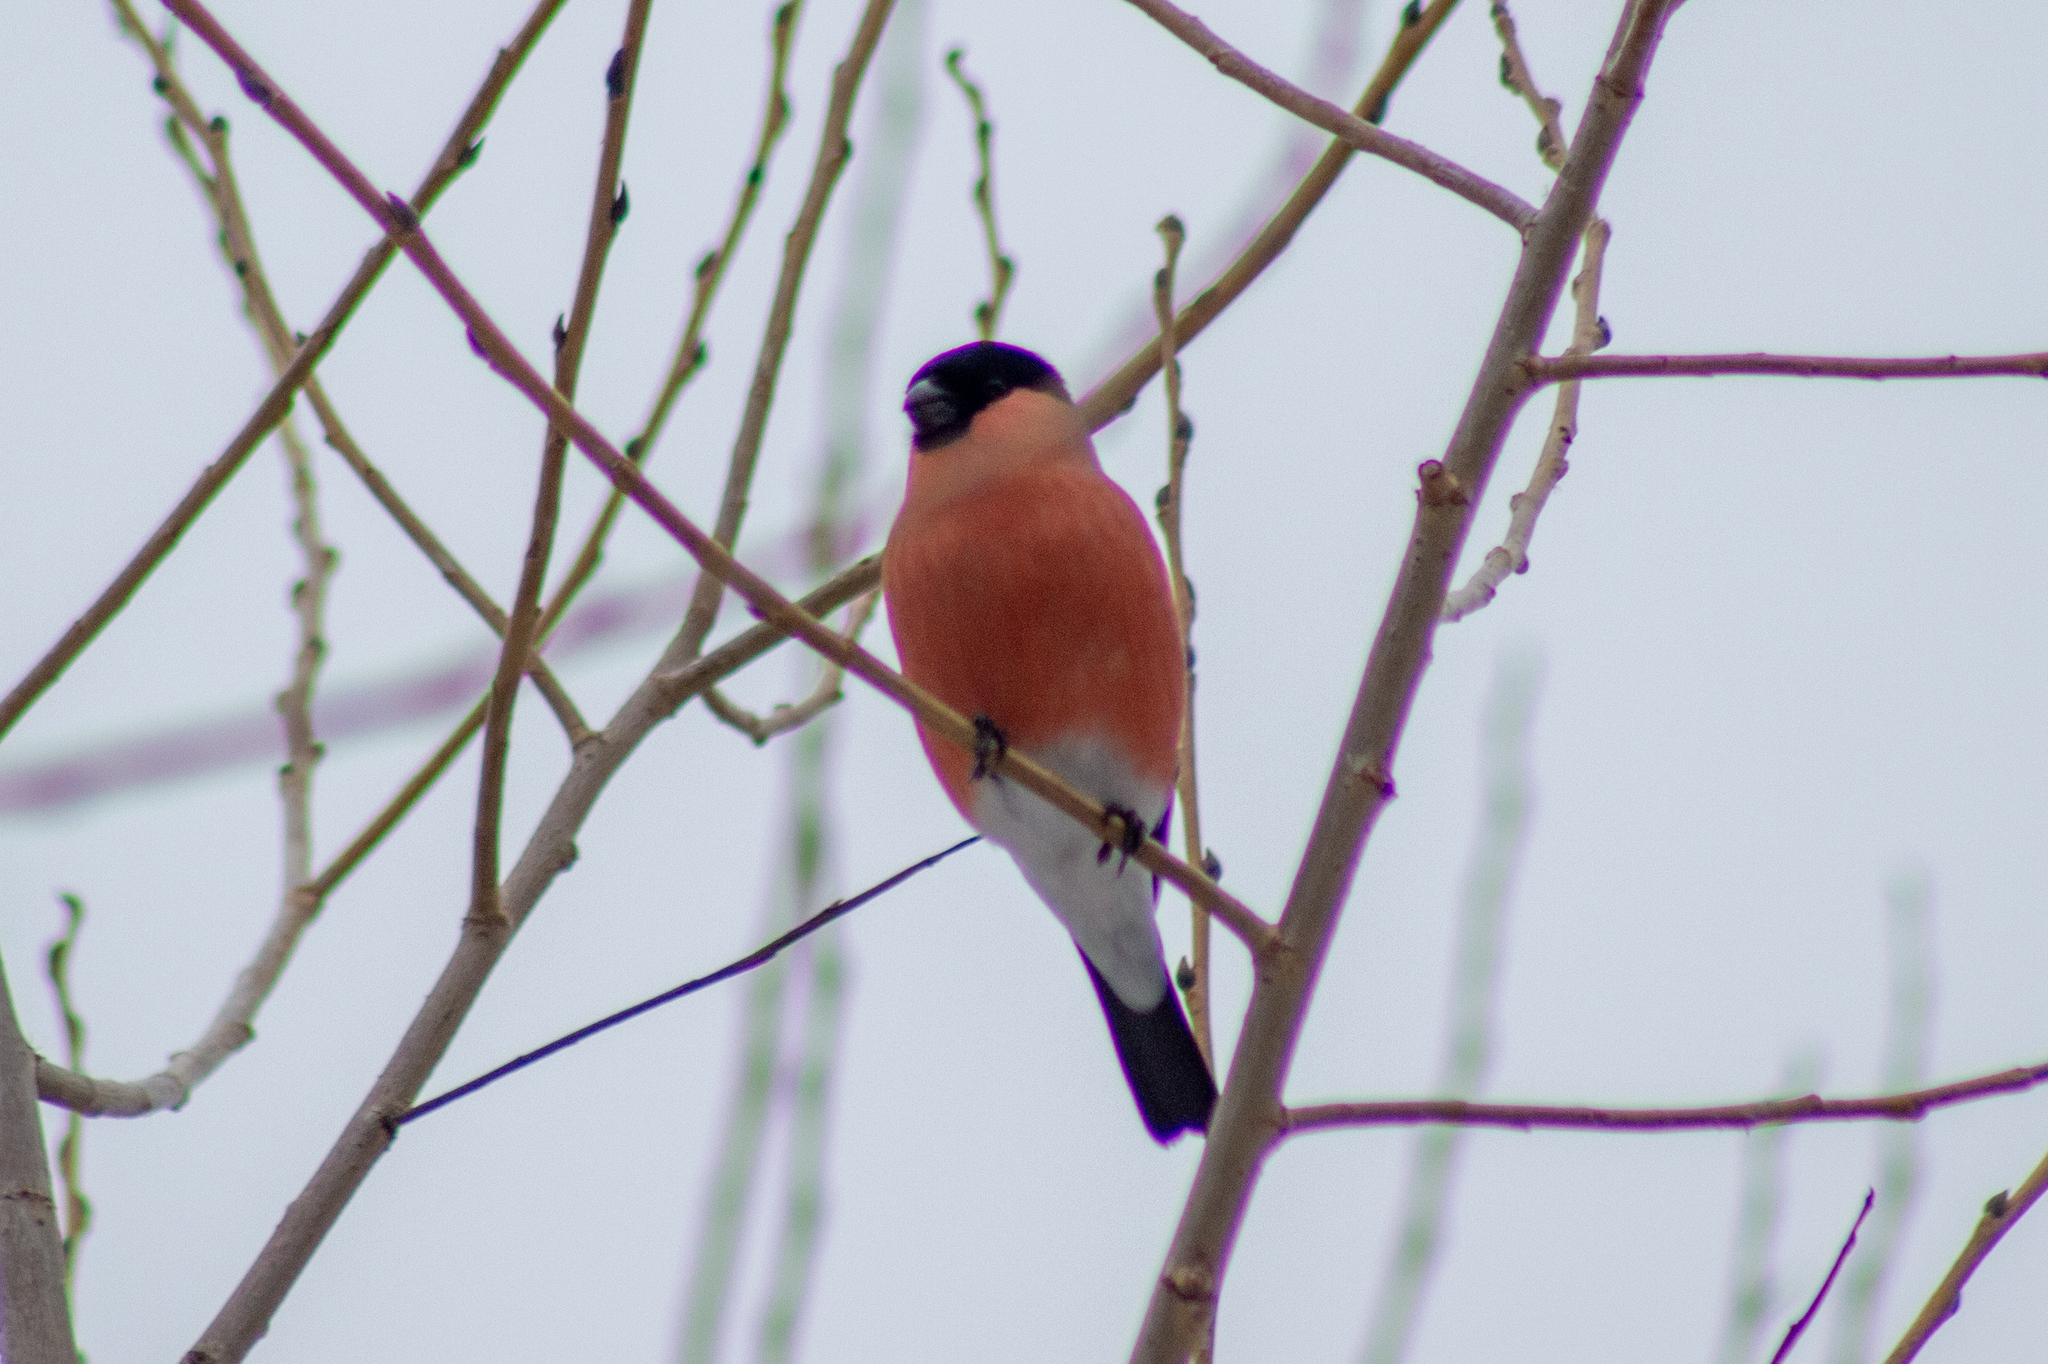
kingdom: Animalia
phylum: Chordata
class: Aves
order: Passeriformes
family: Fringillidae
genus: Pyrrhula
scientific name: Pyrrhula pyrrhula
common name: Eurasian bullfinch
